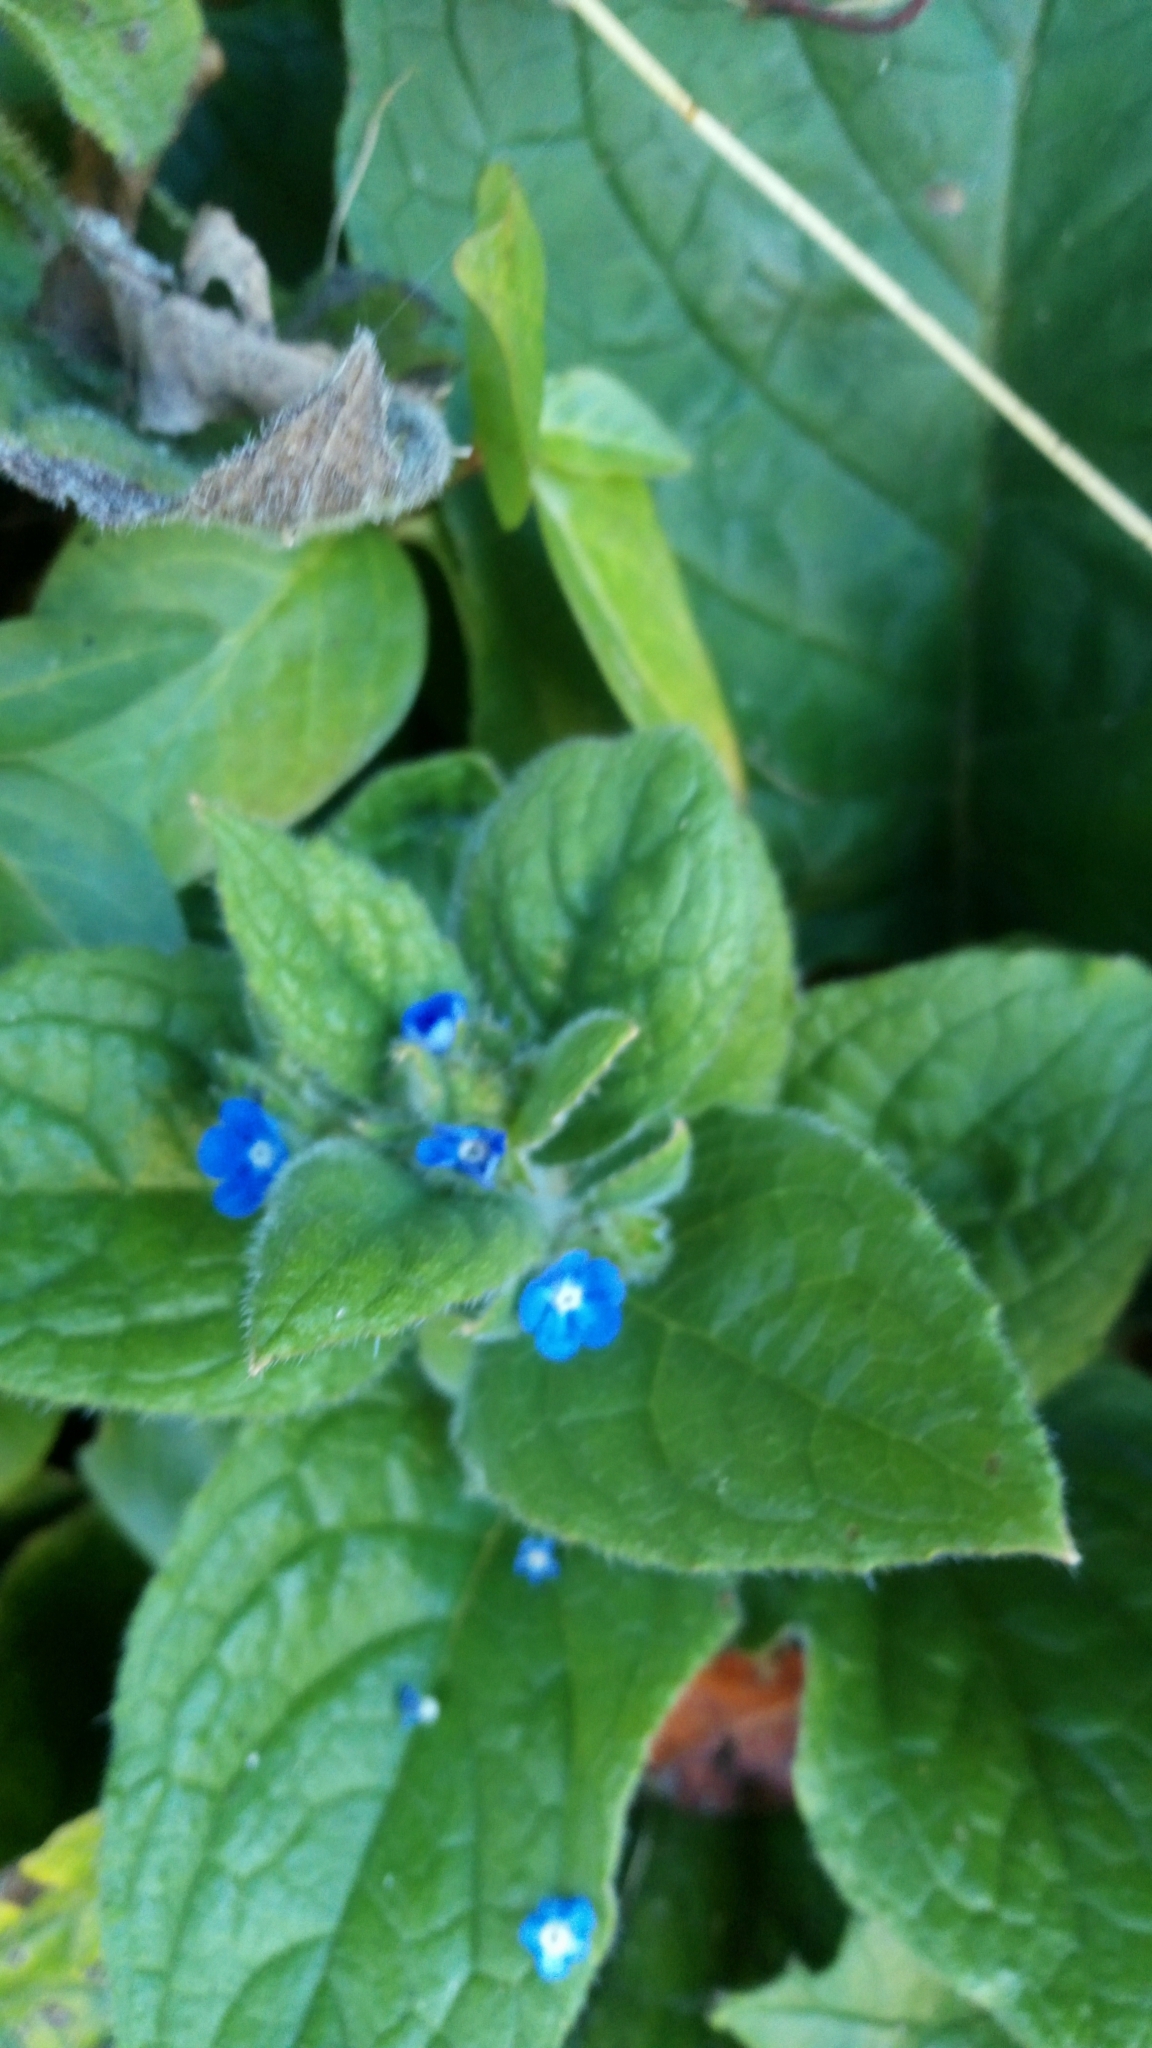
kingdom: Plantae
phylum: Tracheophyta
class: Magnoliopsida
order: Boraginales
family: Boraginaceae
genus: Pentaglottis
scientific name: Pentaglottis sempervirens
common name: Green alkanet
